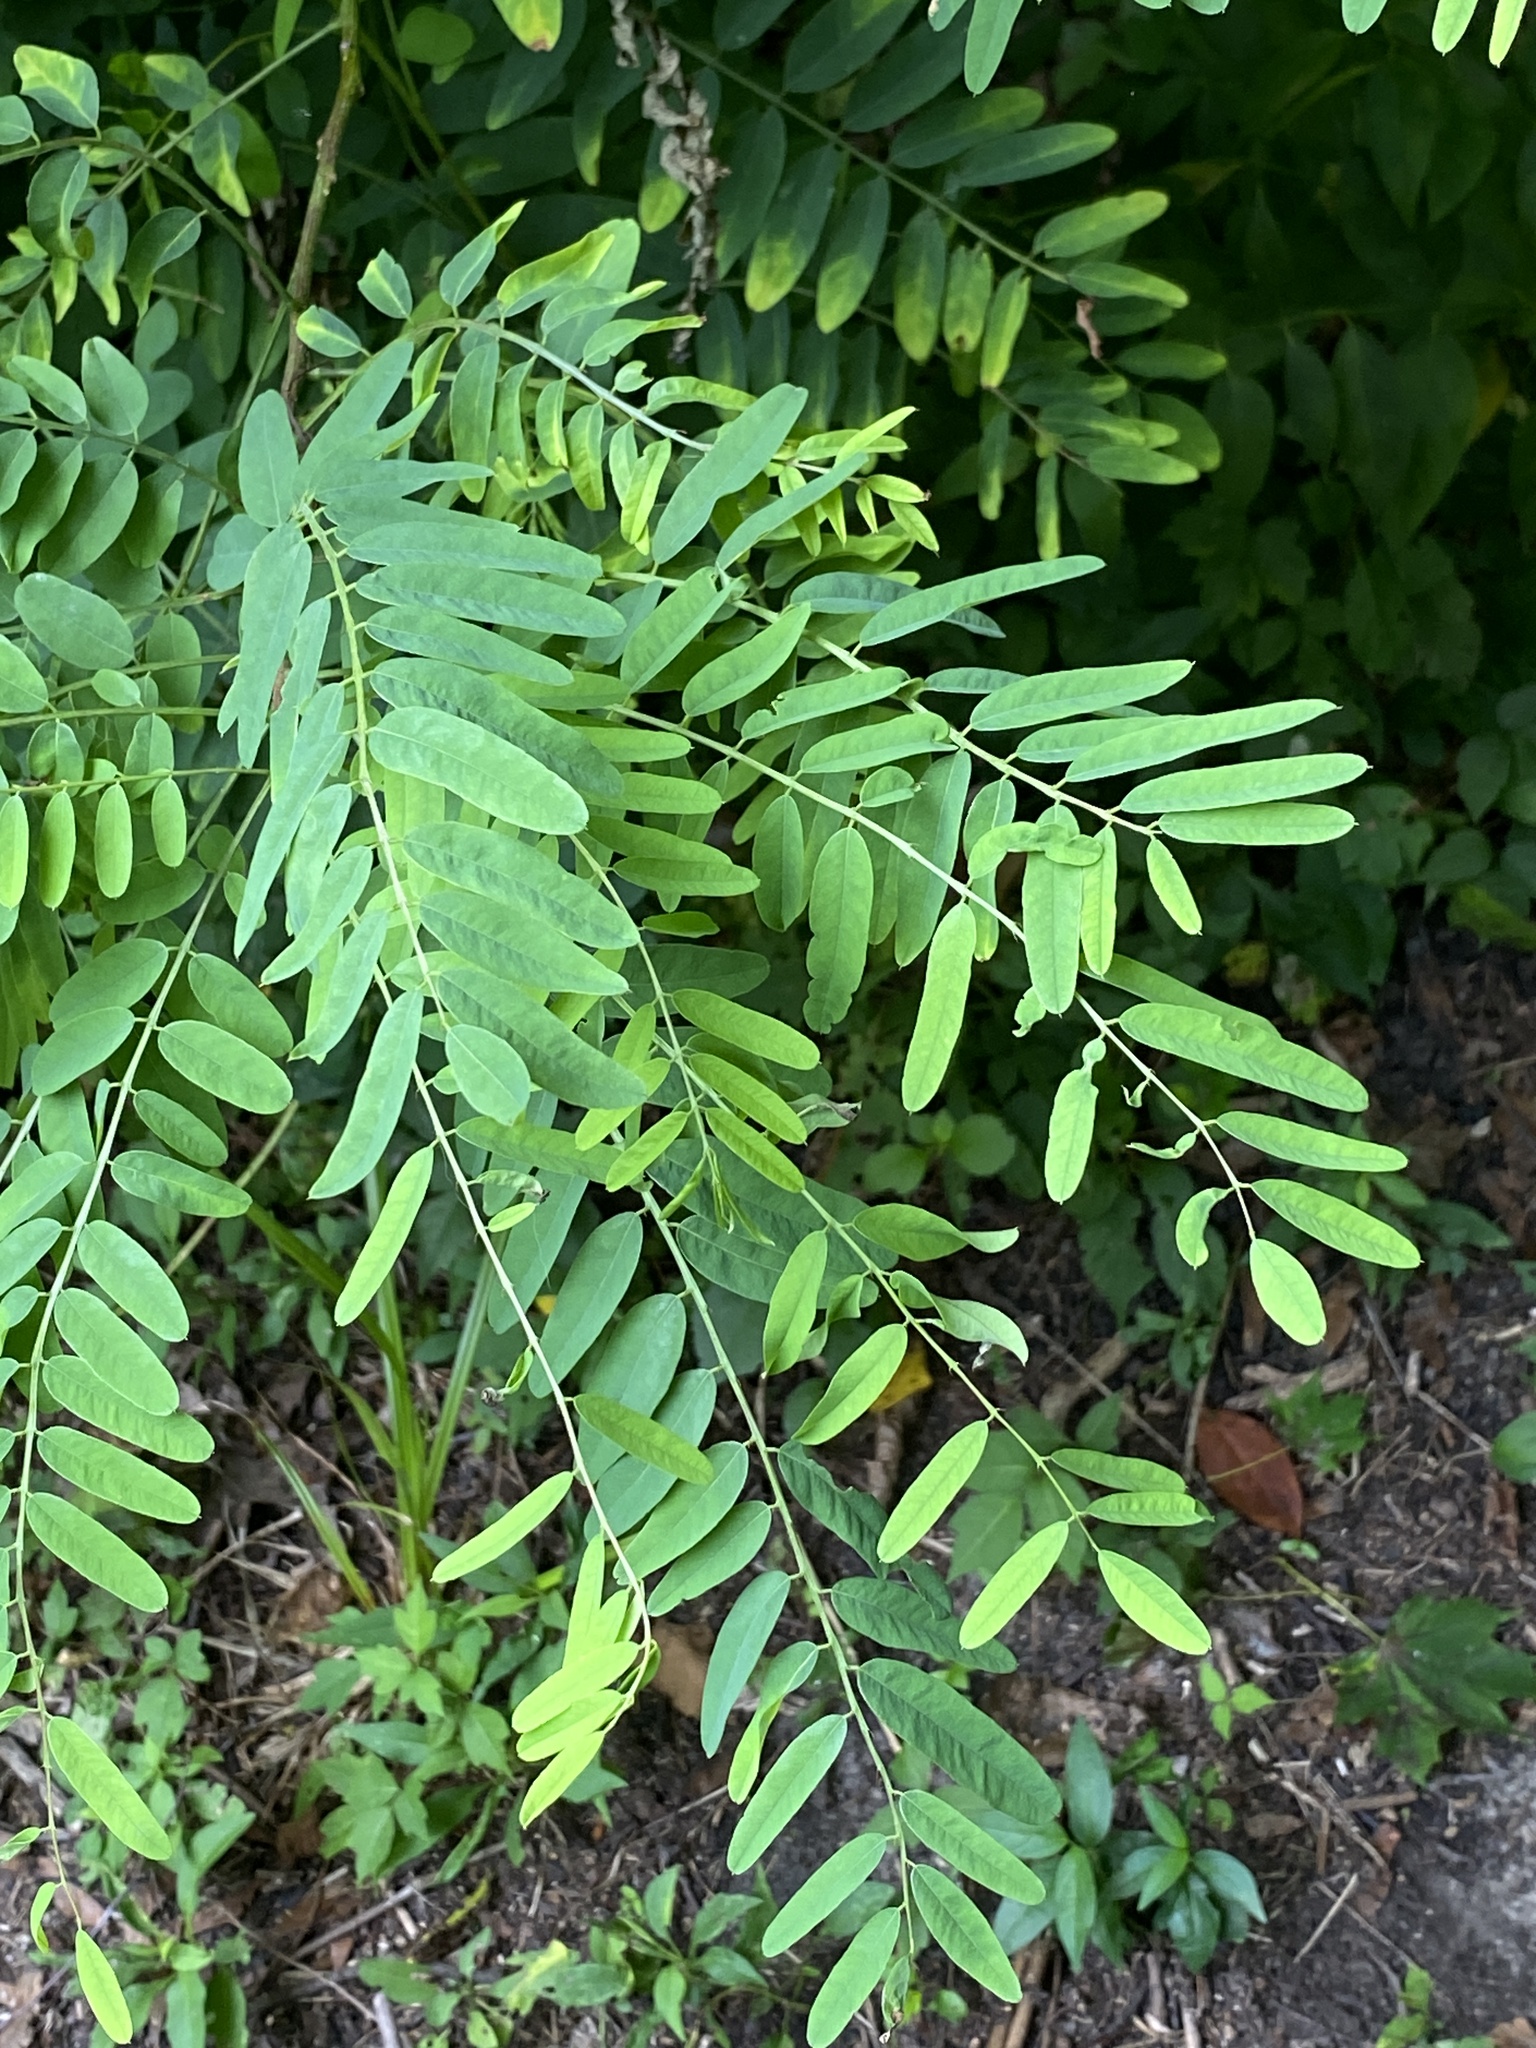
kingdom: Plantae
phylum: Tracheophyta
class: Magnoliopsida
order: Fabales
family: Fabaceae
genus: Amorpha
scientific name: Amorpha fruticosa
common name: False indigo
